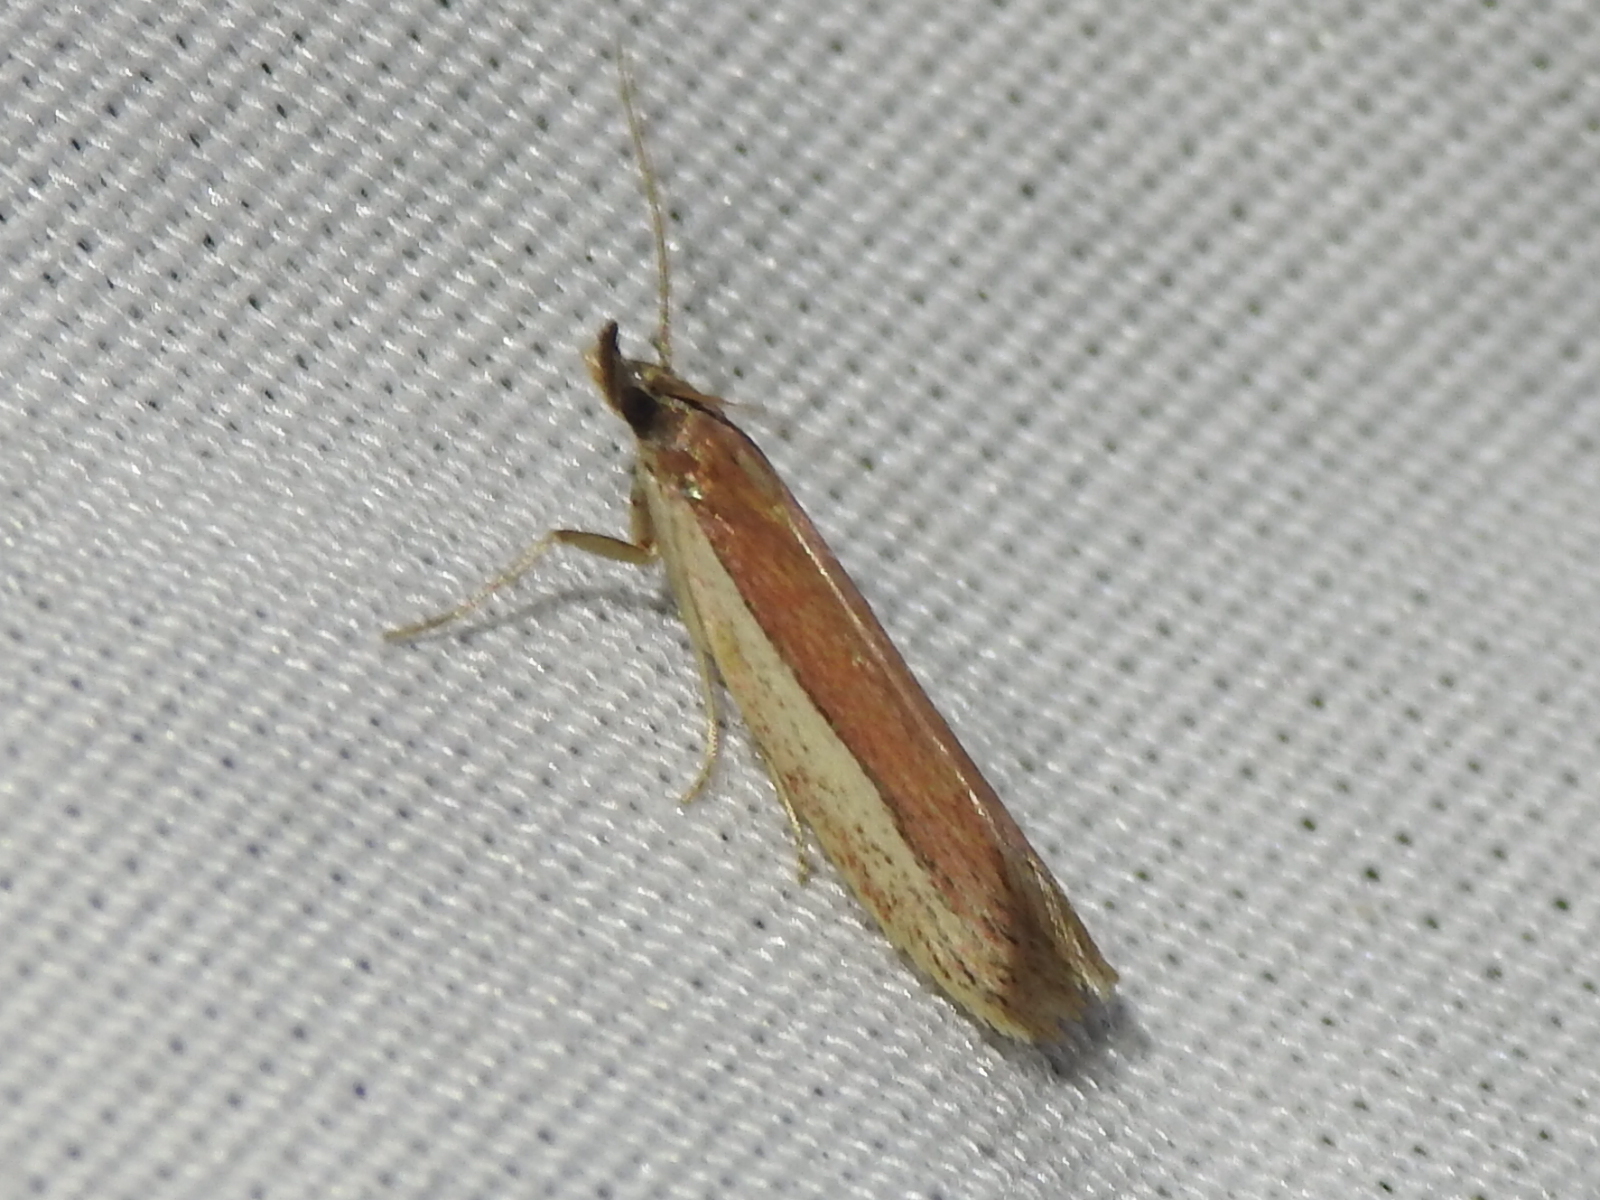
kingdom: Animalia
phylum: Arthropoda
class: Insecta
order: Lepidoptera
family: Pyralidae
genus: Tampa
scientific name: Tampa dimediatella
